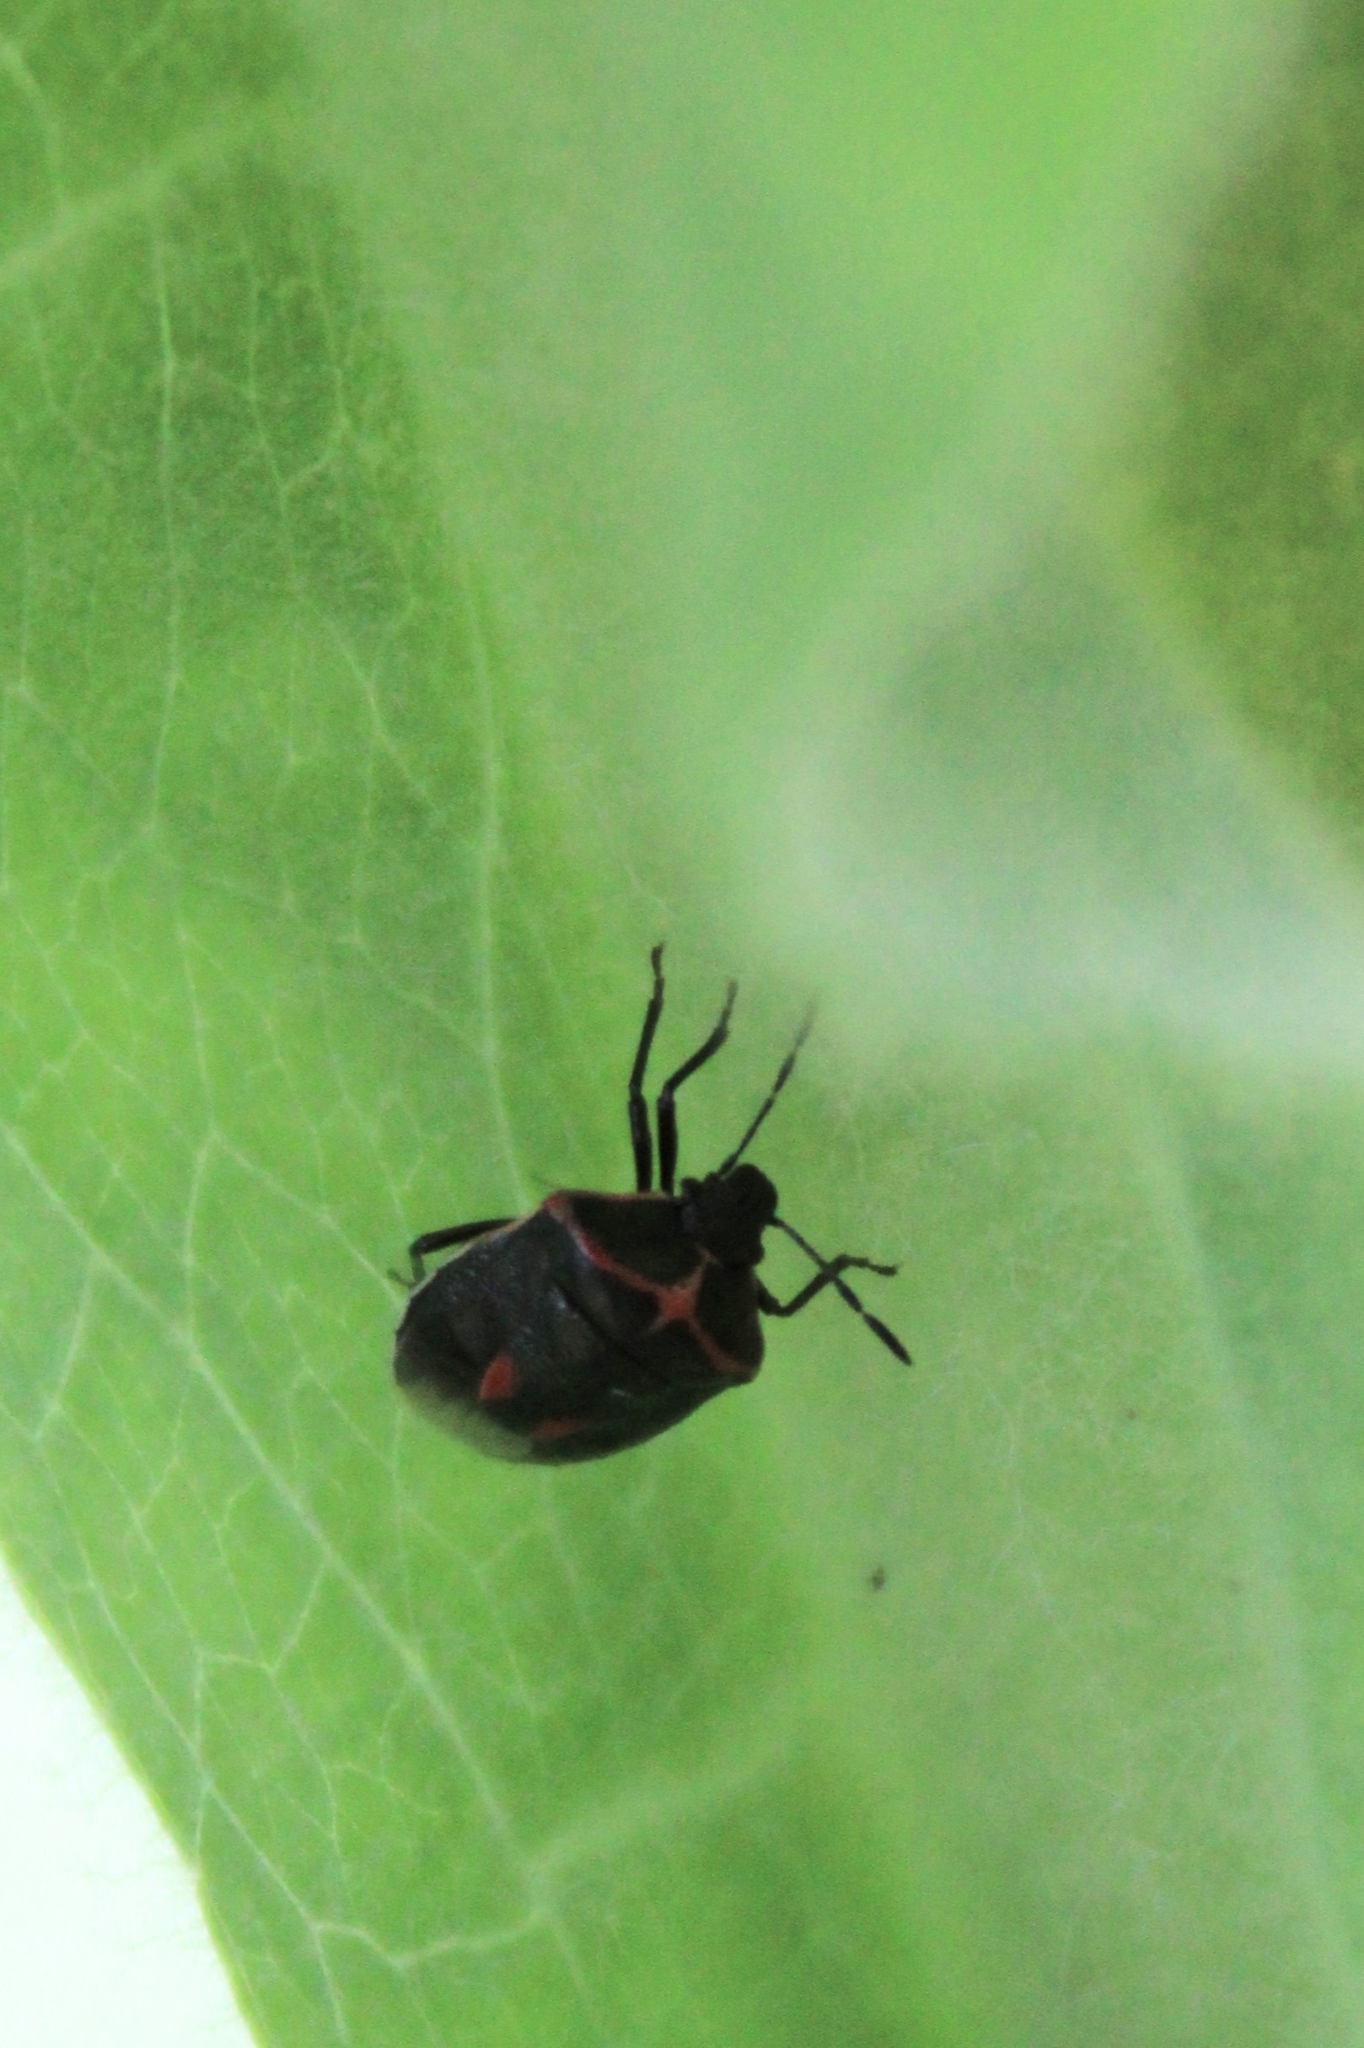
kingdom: Animalia
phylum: Arthropoda
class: Insecta
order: Hemiptera
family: Pentatomidae
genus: Cosmopepla
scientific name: Cosmopepla lintneriana
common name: Twice-stabbed stink bug
